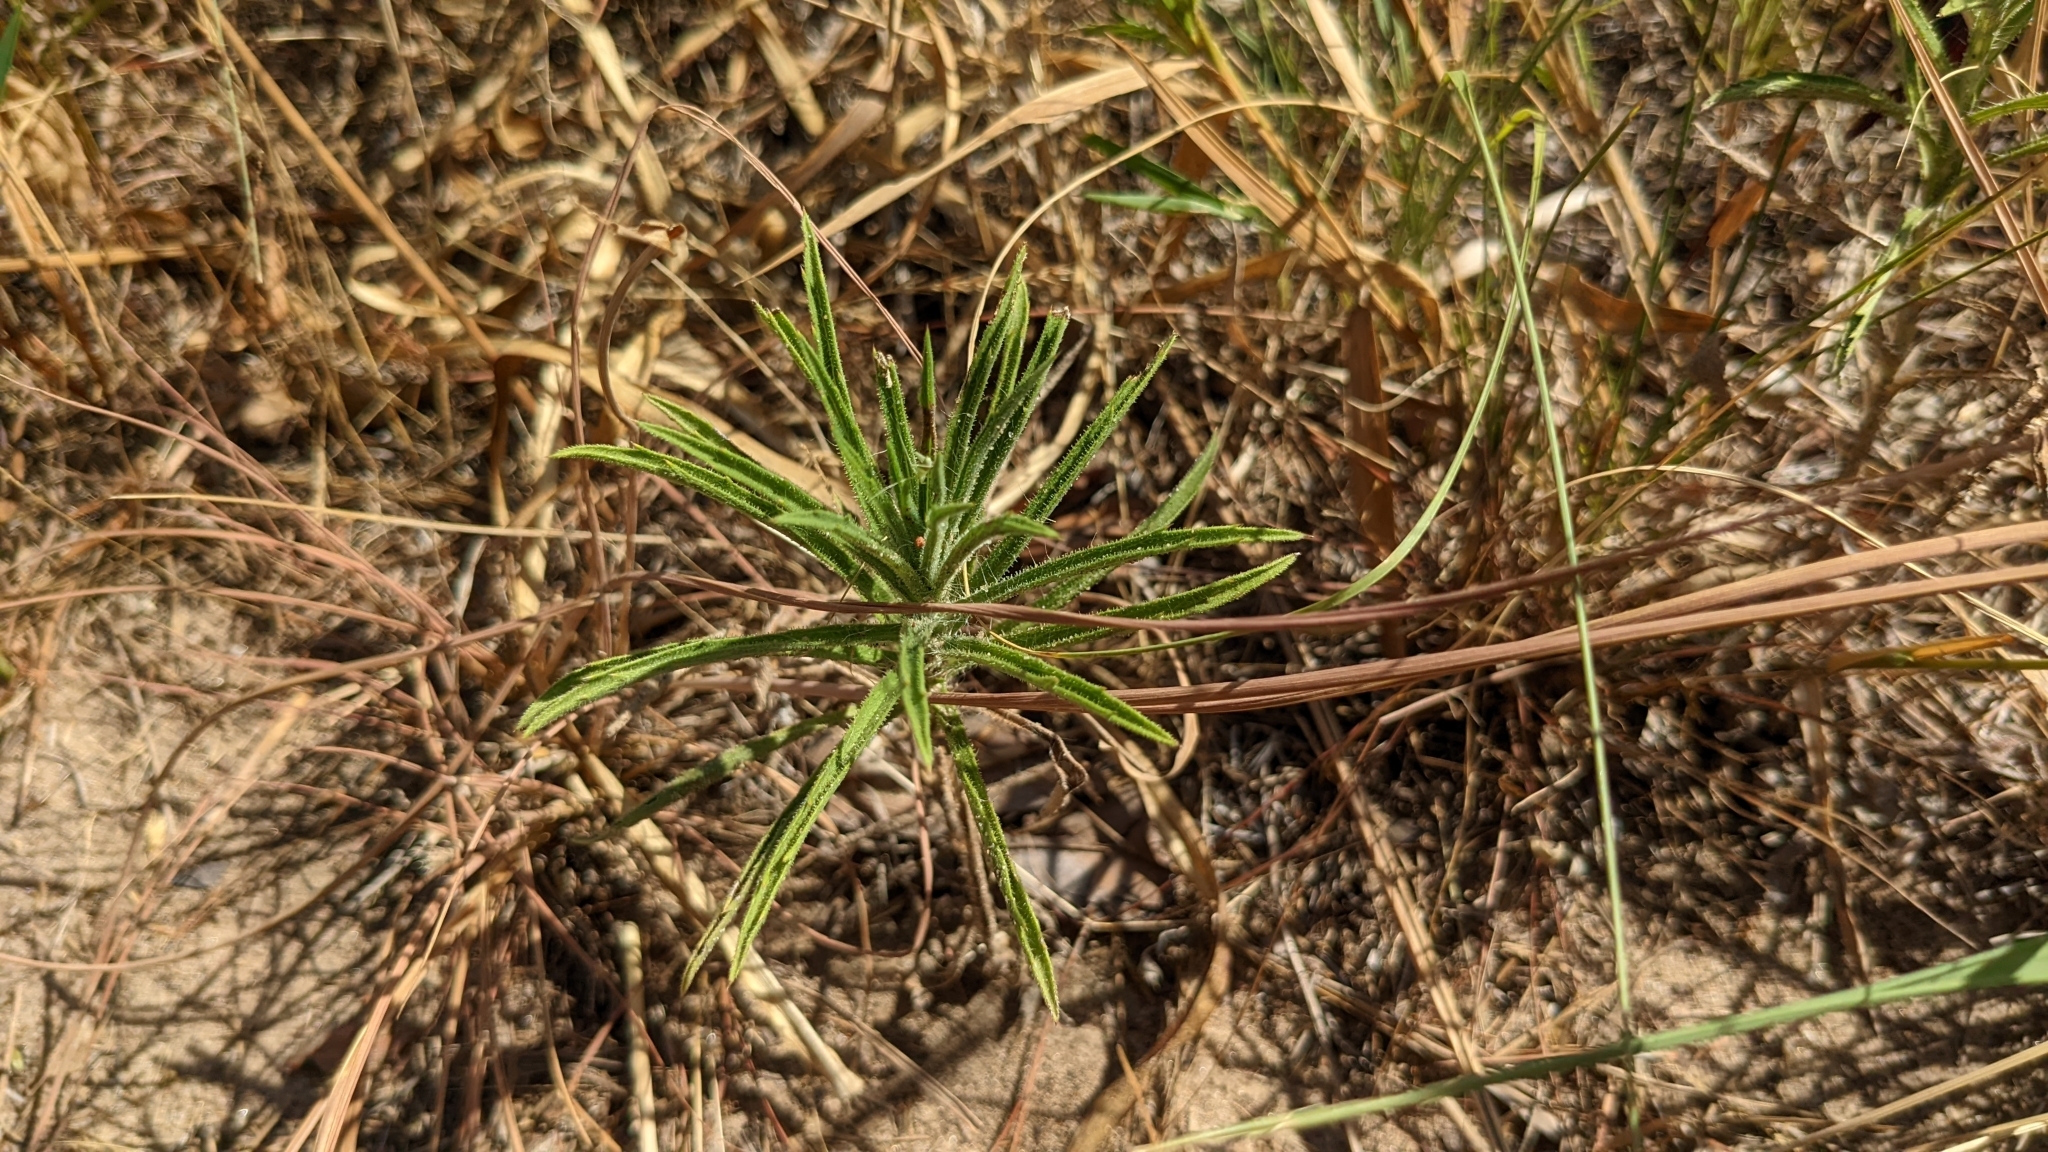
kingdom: Plantae
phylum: Tracheophyta
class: Magnoliopsida
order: Asterales
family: Asteraceae
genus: Croptilon
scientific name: Croptilon divaricatum
